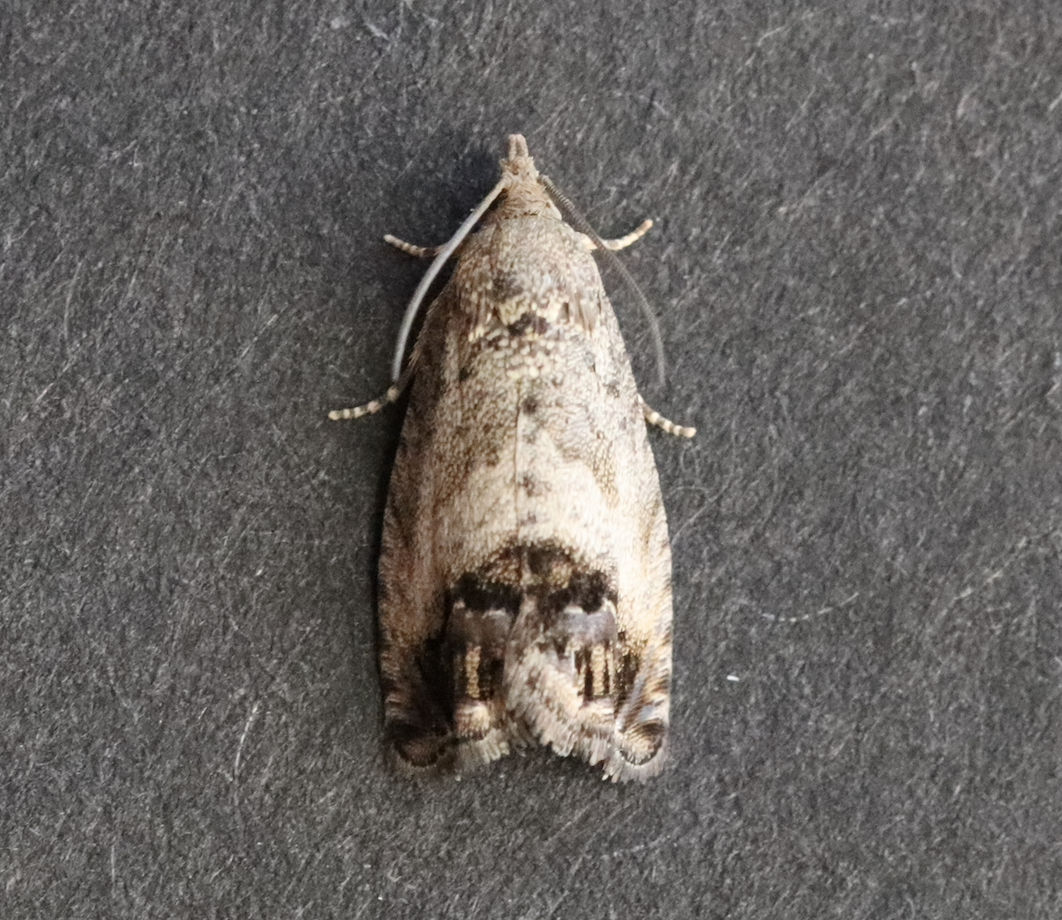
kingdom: Animalia
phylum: Arthropoda
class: Insecta
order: Lepidoptera
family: Tortricidae
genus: Cydia
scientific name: Cydia splendana
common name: De: kastanienwickler, eichenwickler es: oruga de la castaña fr: carpocapse des châtaignes it: cidia o tortrice tardiva delle castagne pt: bichado das castanhas gb: acorn moth, chestnut fruit tortrix
